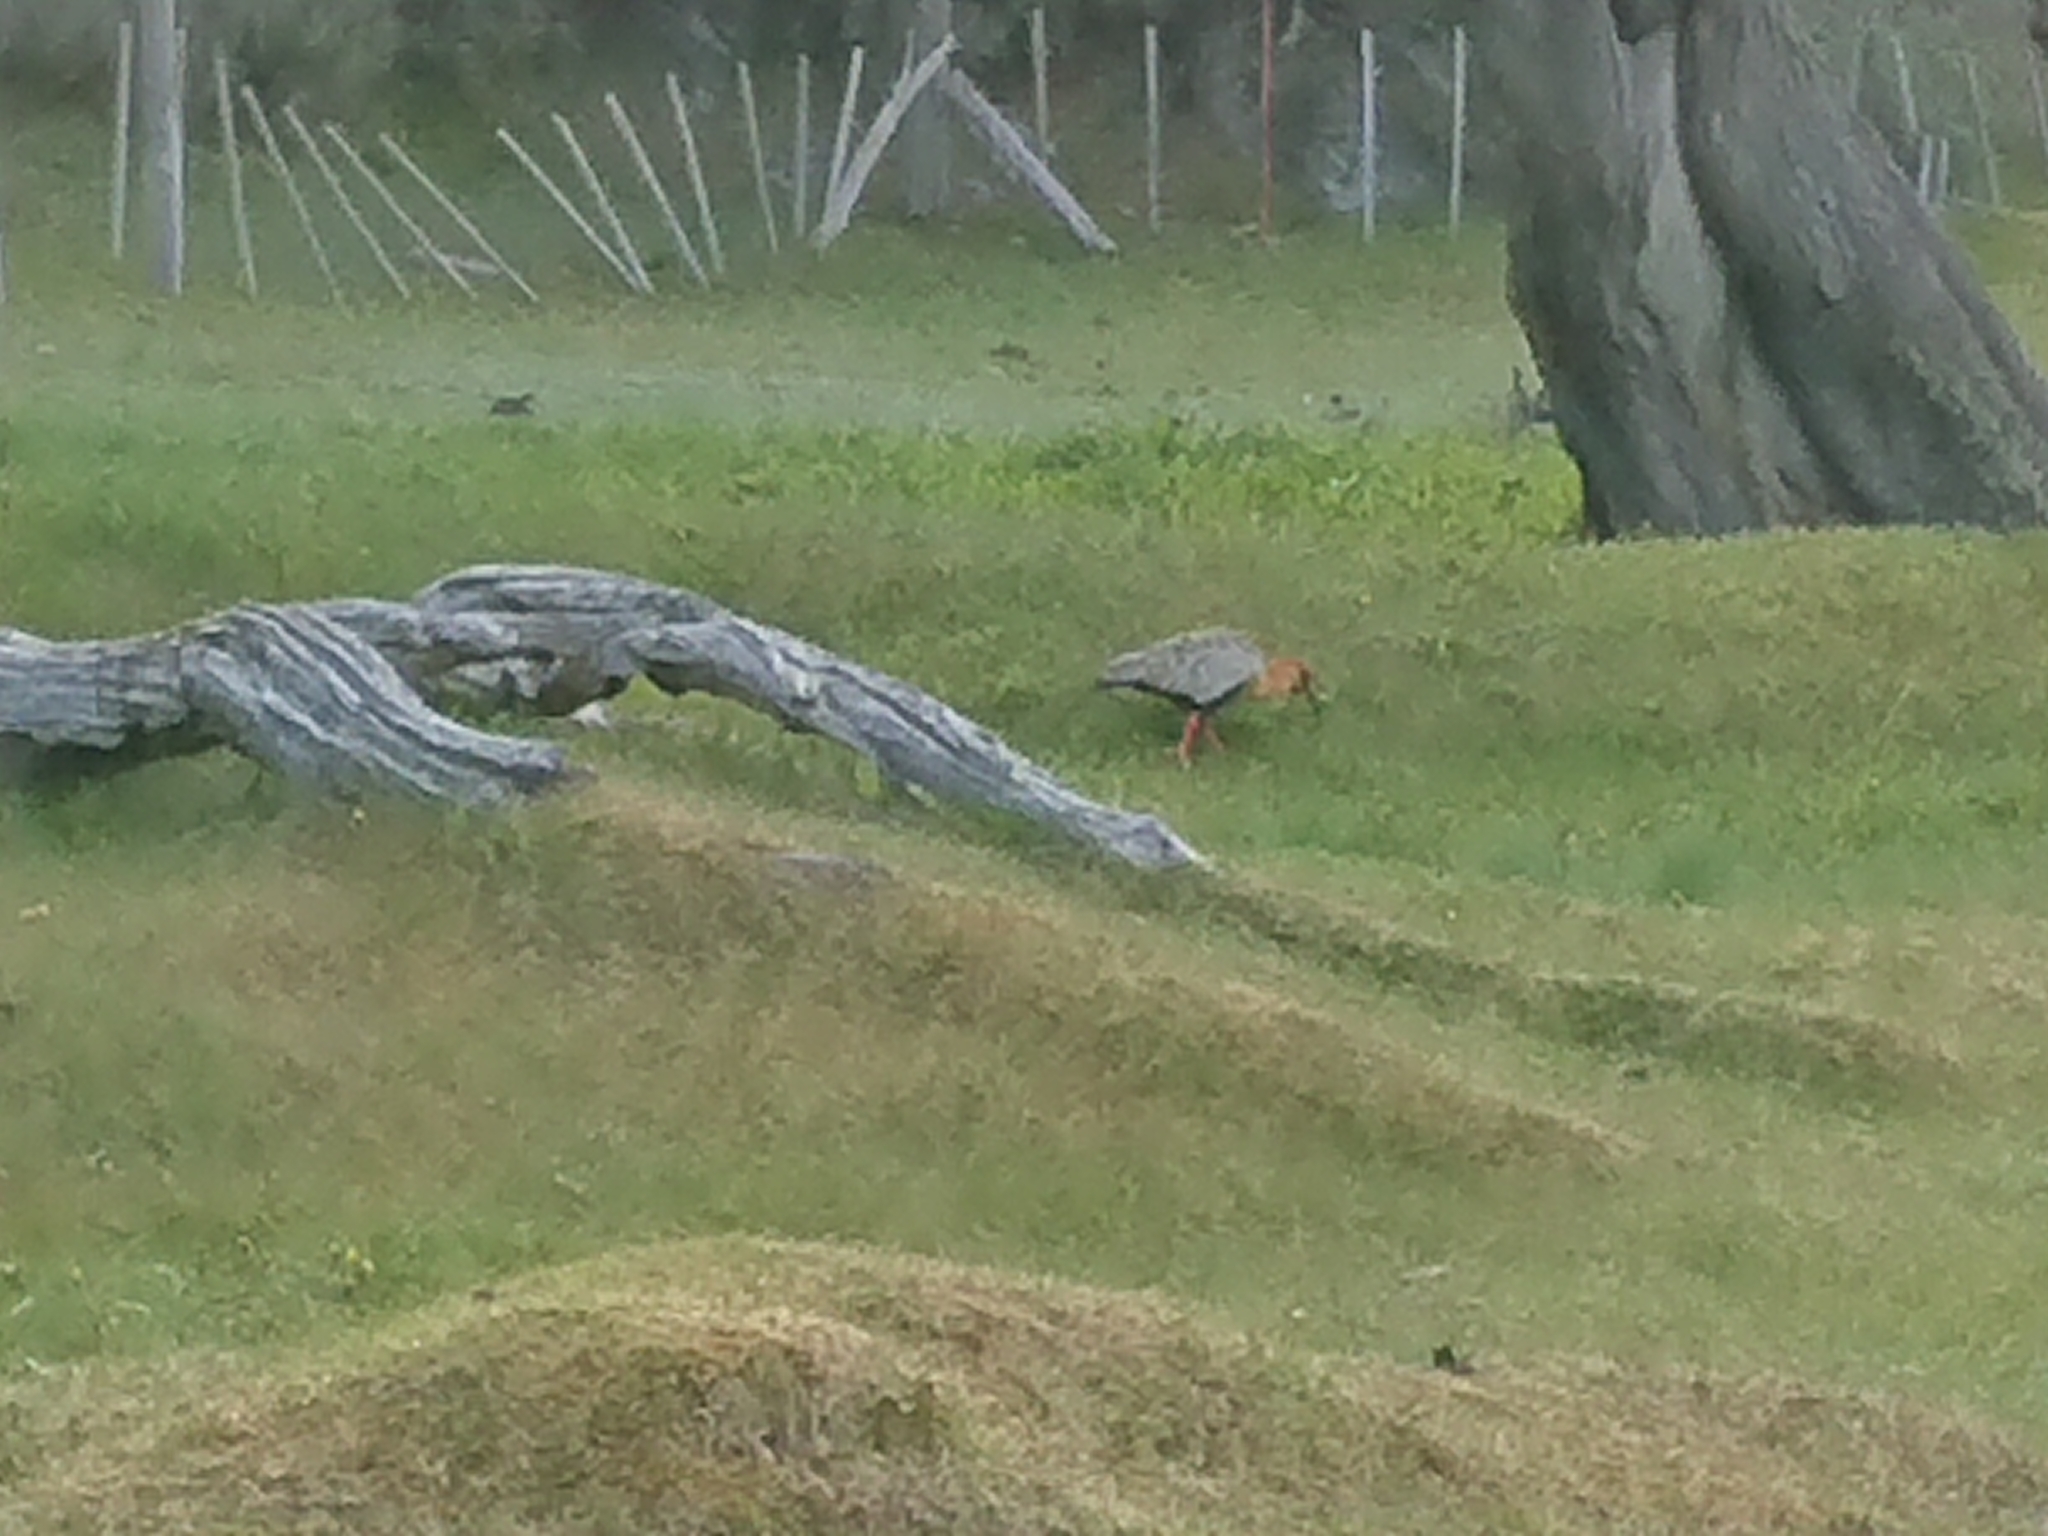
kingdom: Animalia
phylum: Chordata
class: Aves
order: Pelecaniformes
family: Threskiornithidae
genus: Theristicus
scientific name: Theristicus melanopis
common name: Black-faced ibis
